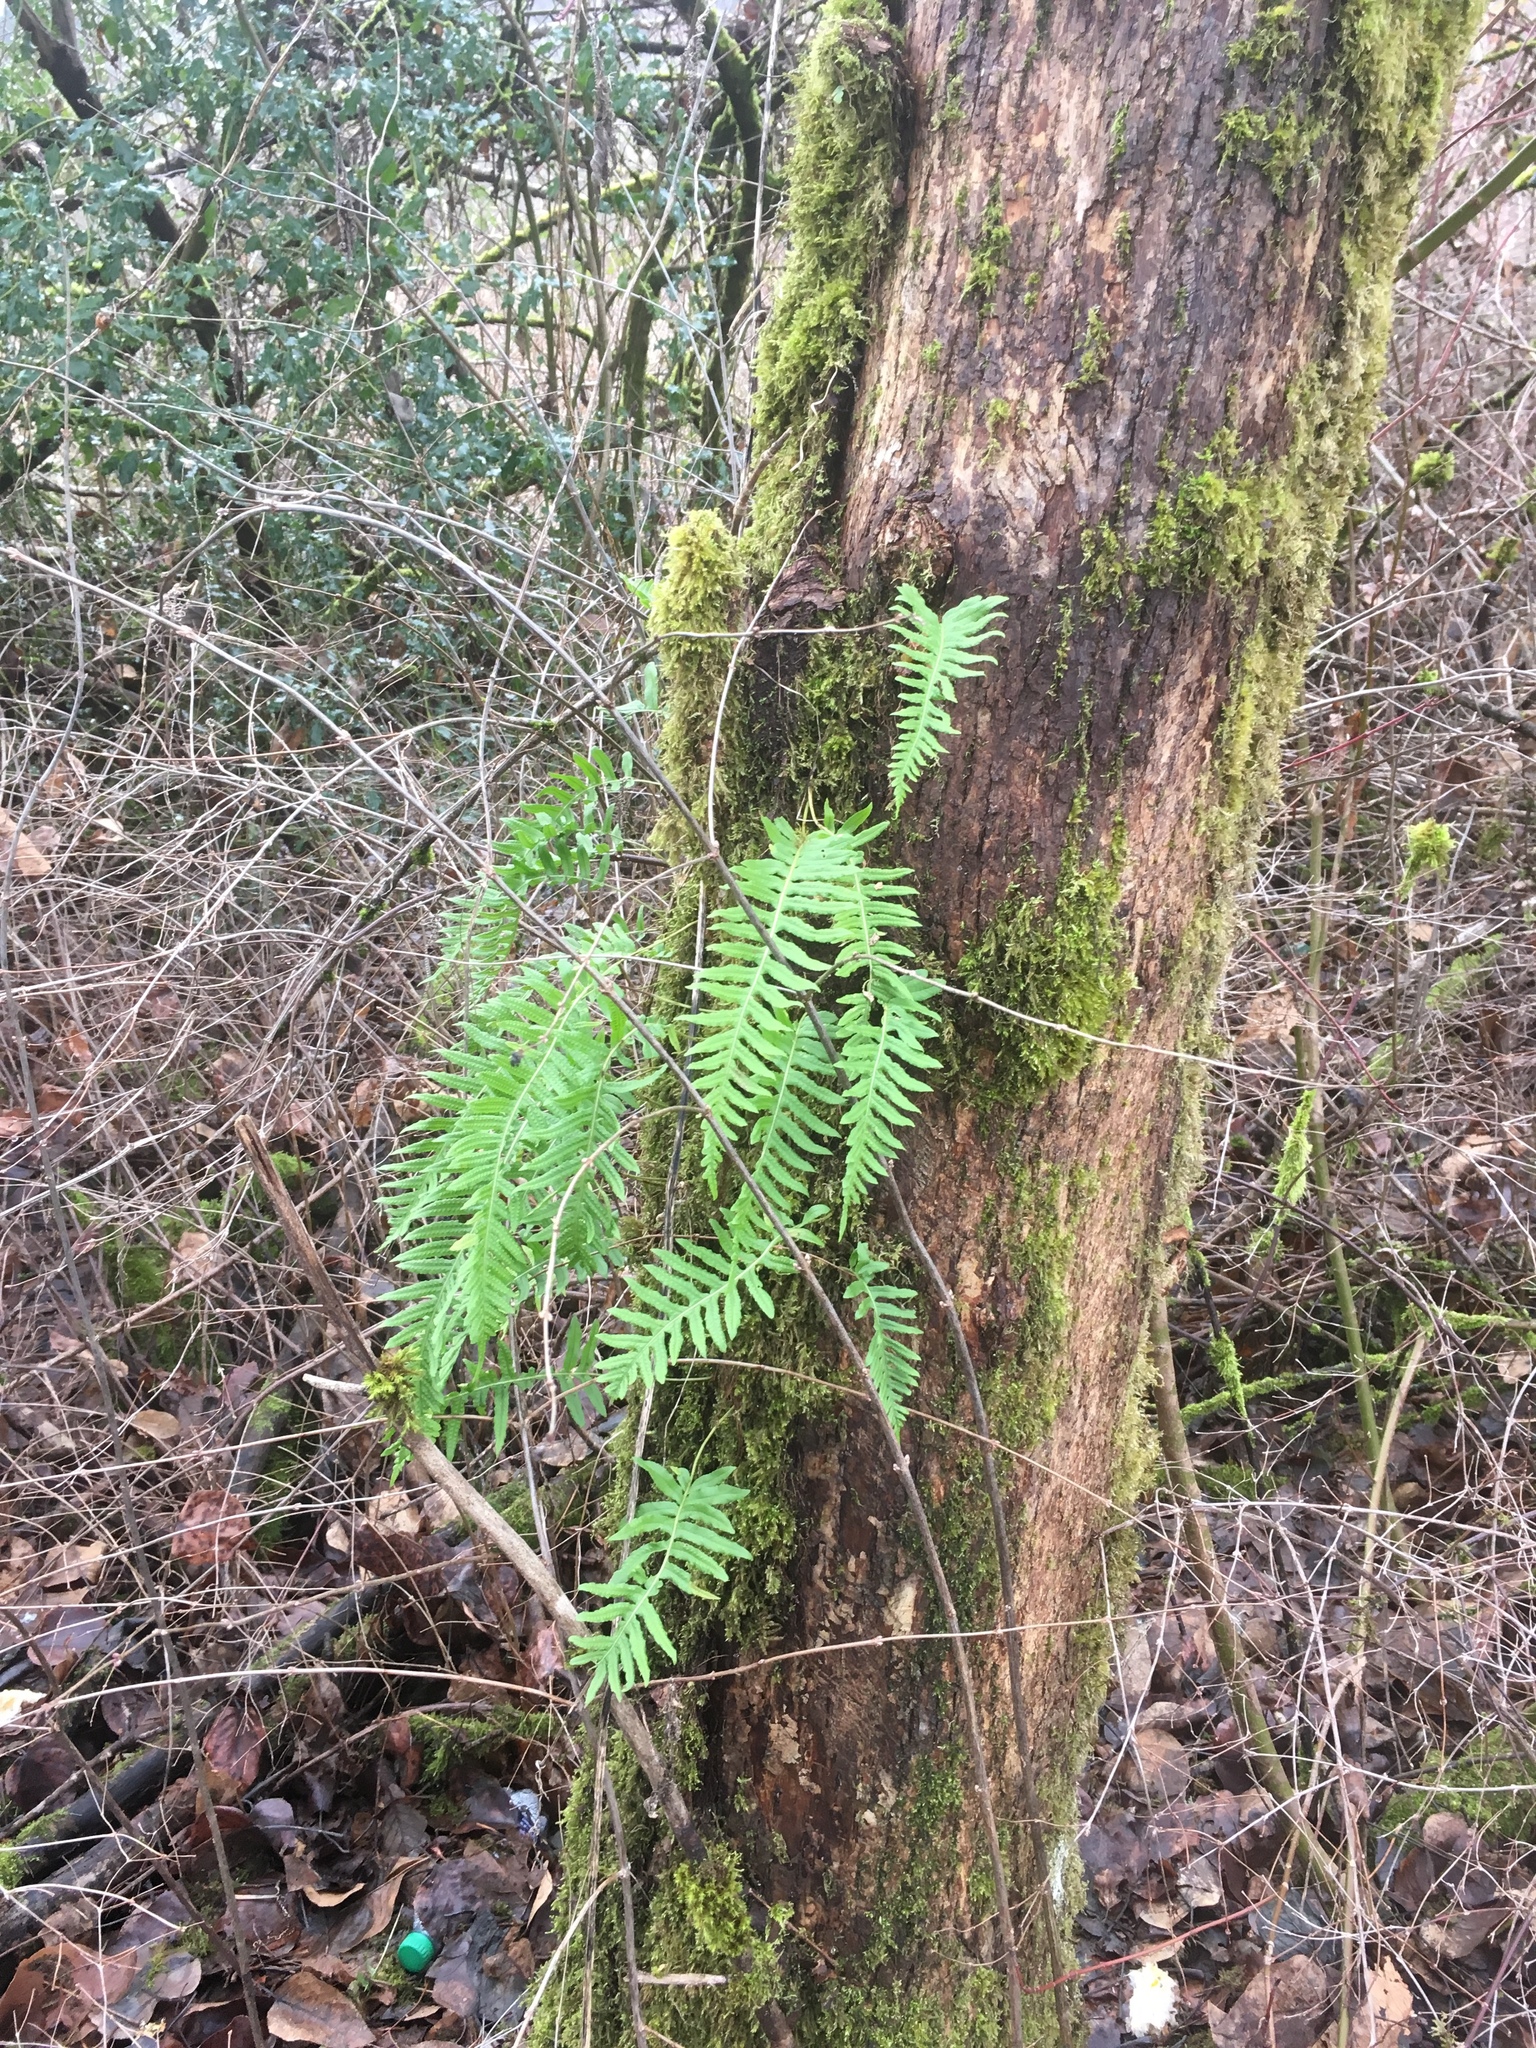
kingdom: Plantae
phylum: Tracheophyta
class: Polypodiopsida
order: Polypodiales
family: Polypodiaceae
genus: Polypodium
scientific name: Polypodium glycyrrhiza
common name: Licorice fern
